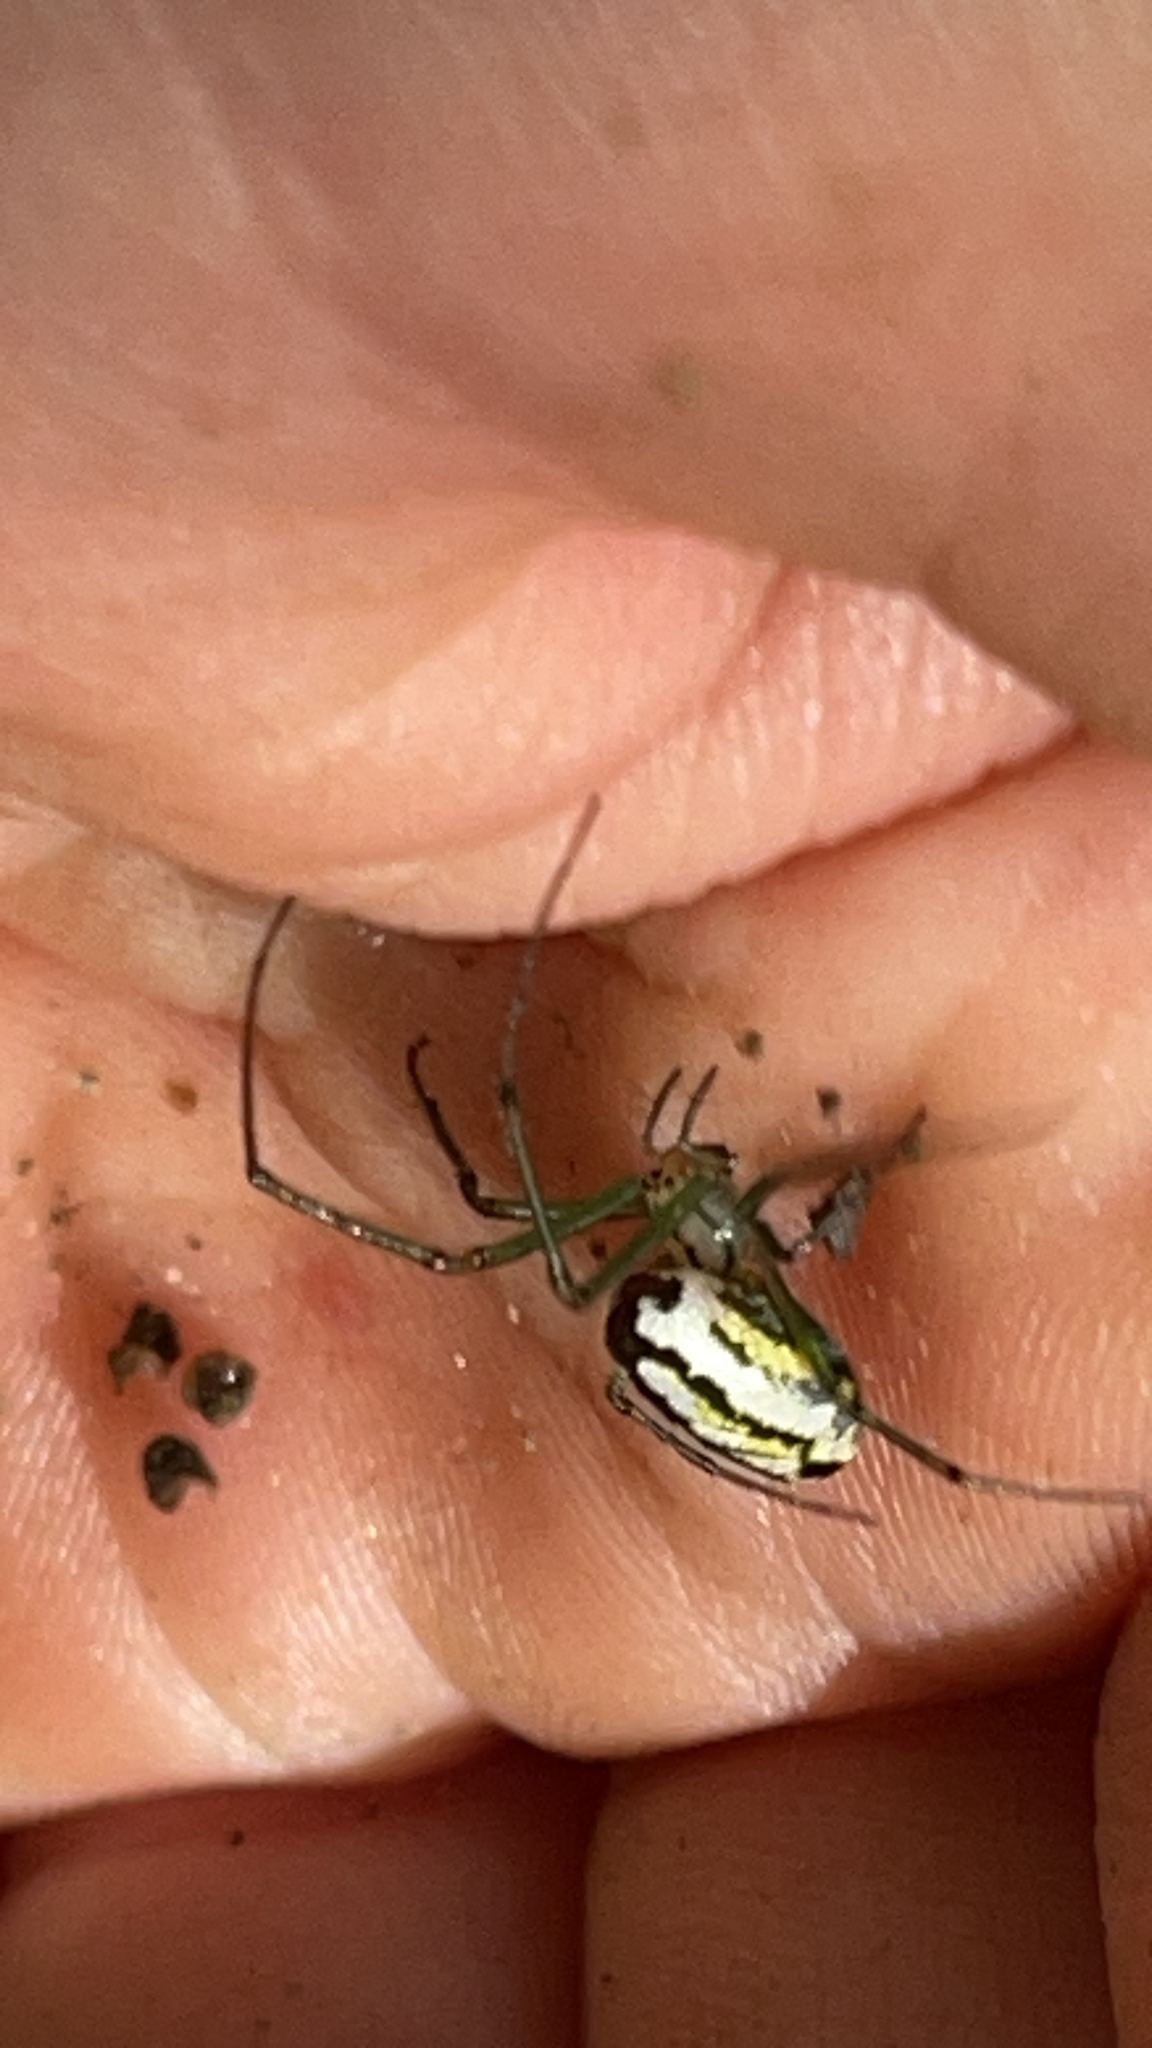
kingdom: Animalia
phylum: Arthropoda
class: Arachnida
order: Araneae
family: Tetragnathidae
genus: Leucauge
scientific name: Leucauge venusta
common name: Longjawed orb weavers
